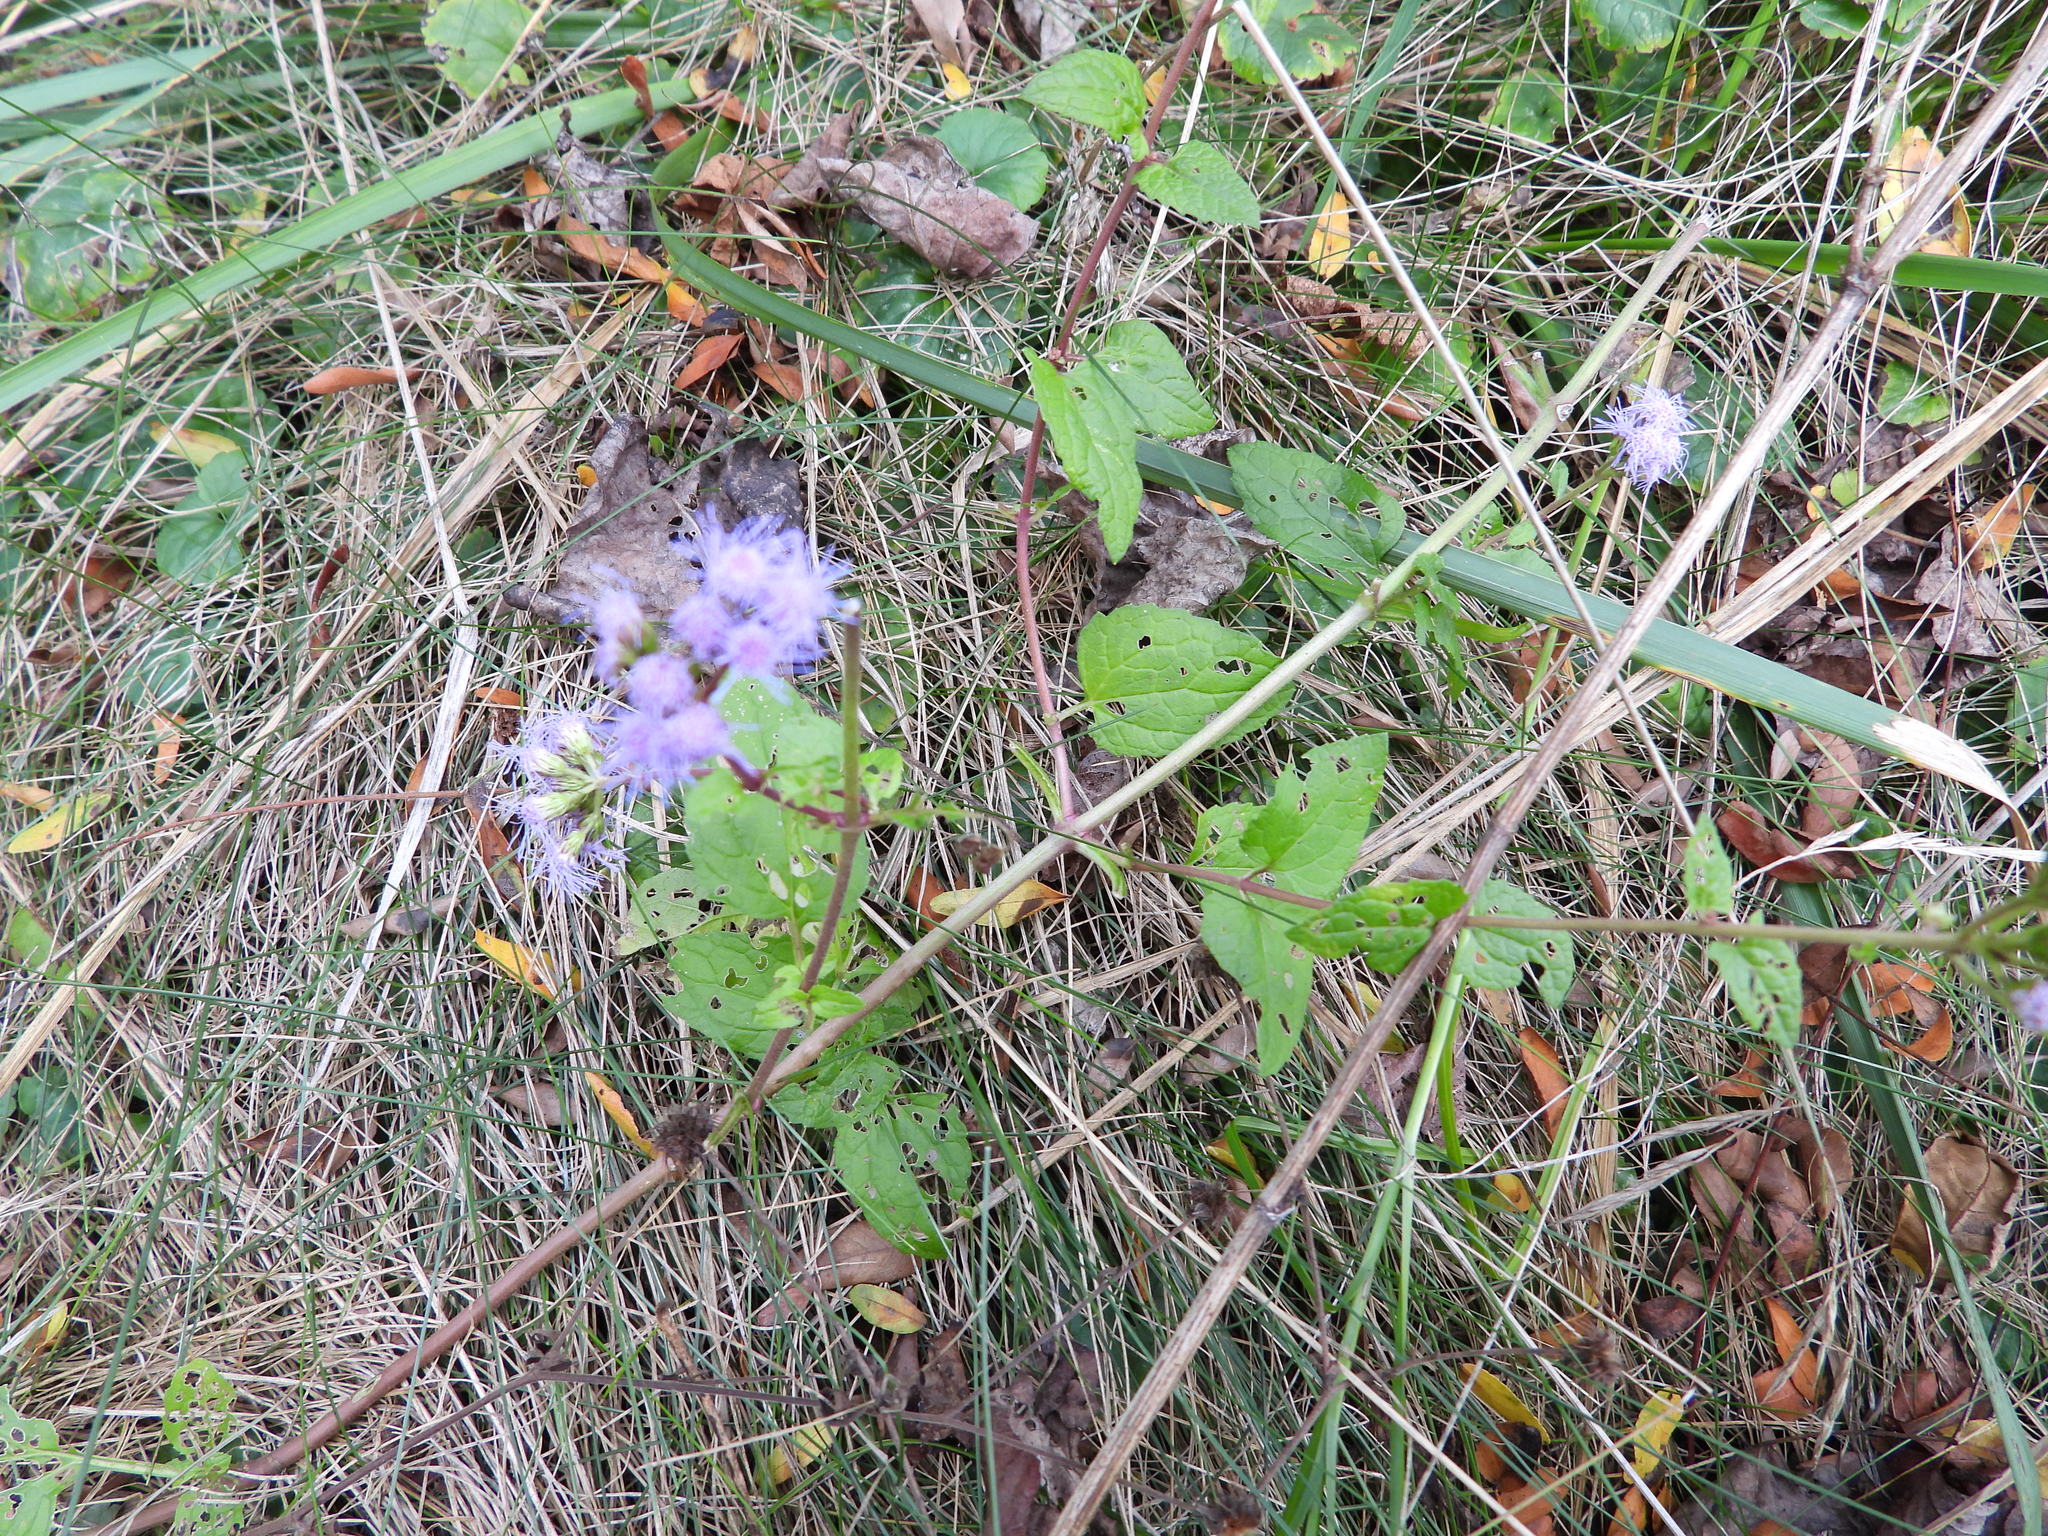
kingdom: Plantae
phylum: Tracheophyta
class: Magnoliopsida
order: Asterales
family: Asteraceae
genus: Conoclinium
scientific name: Conoclinium coelestinum
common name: Blue mistflower
